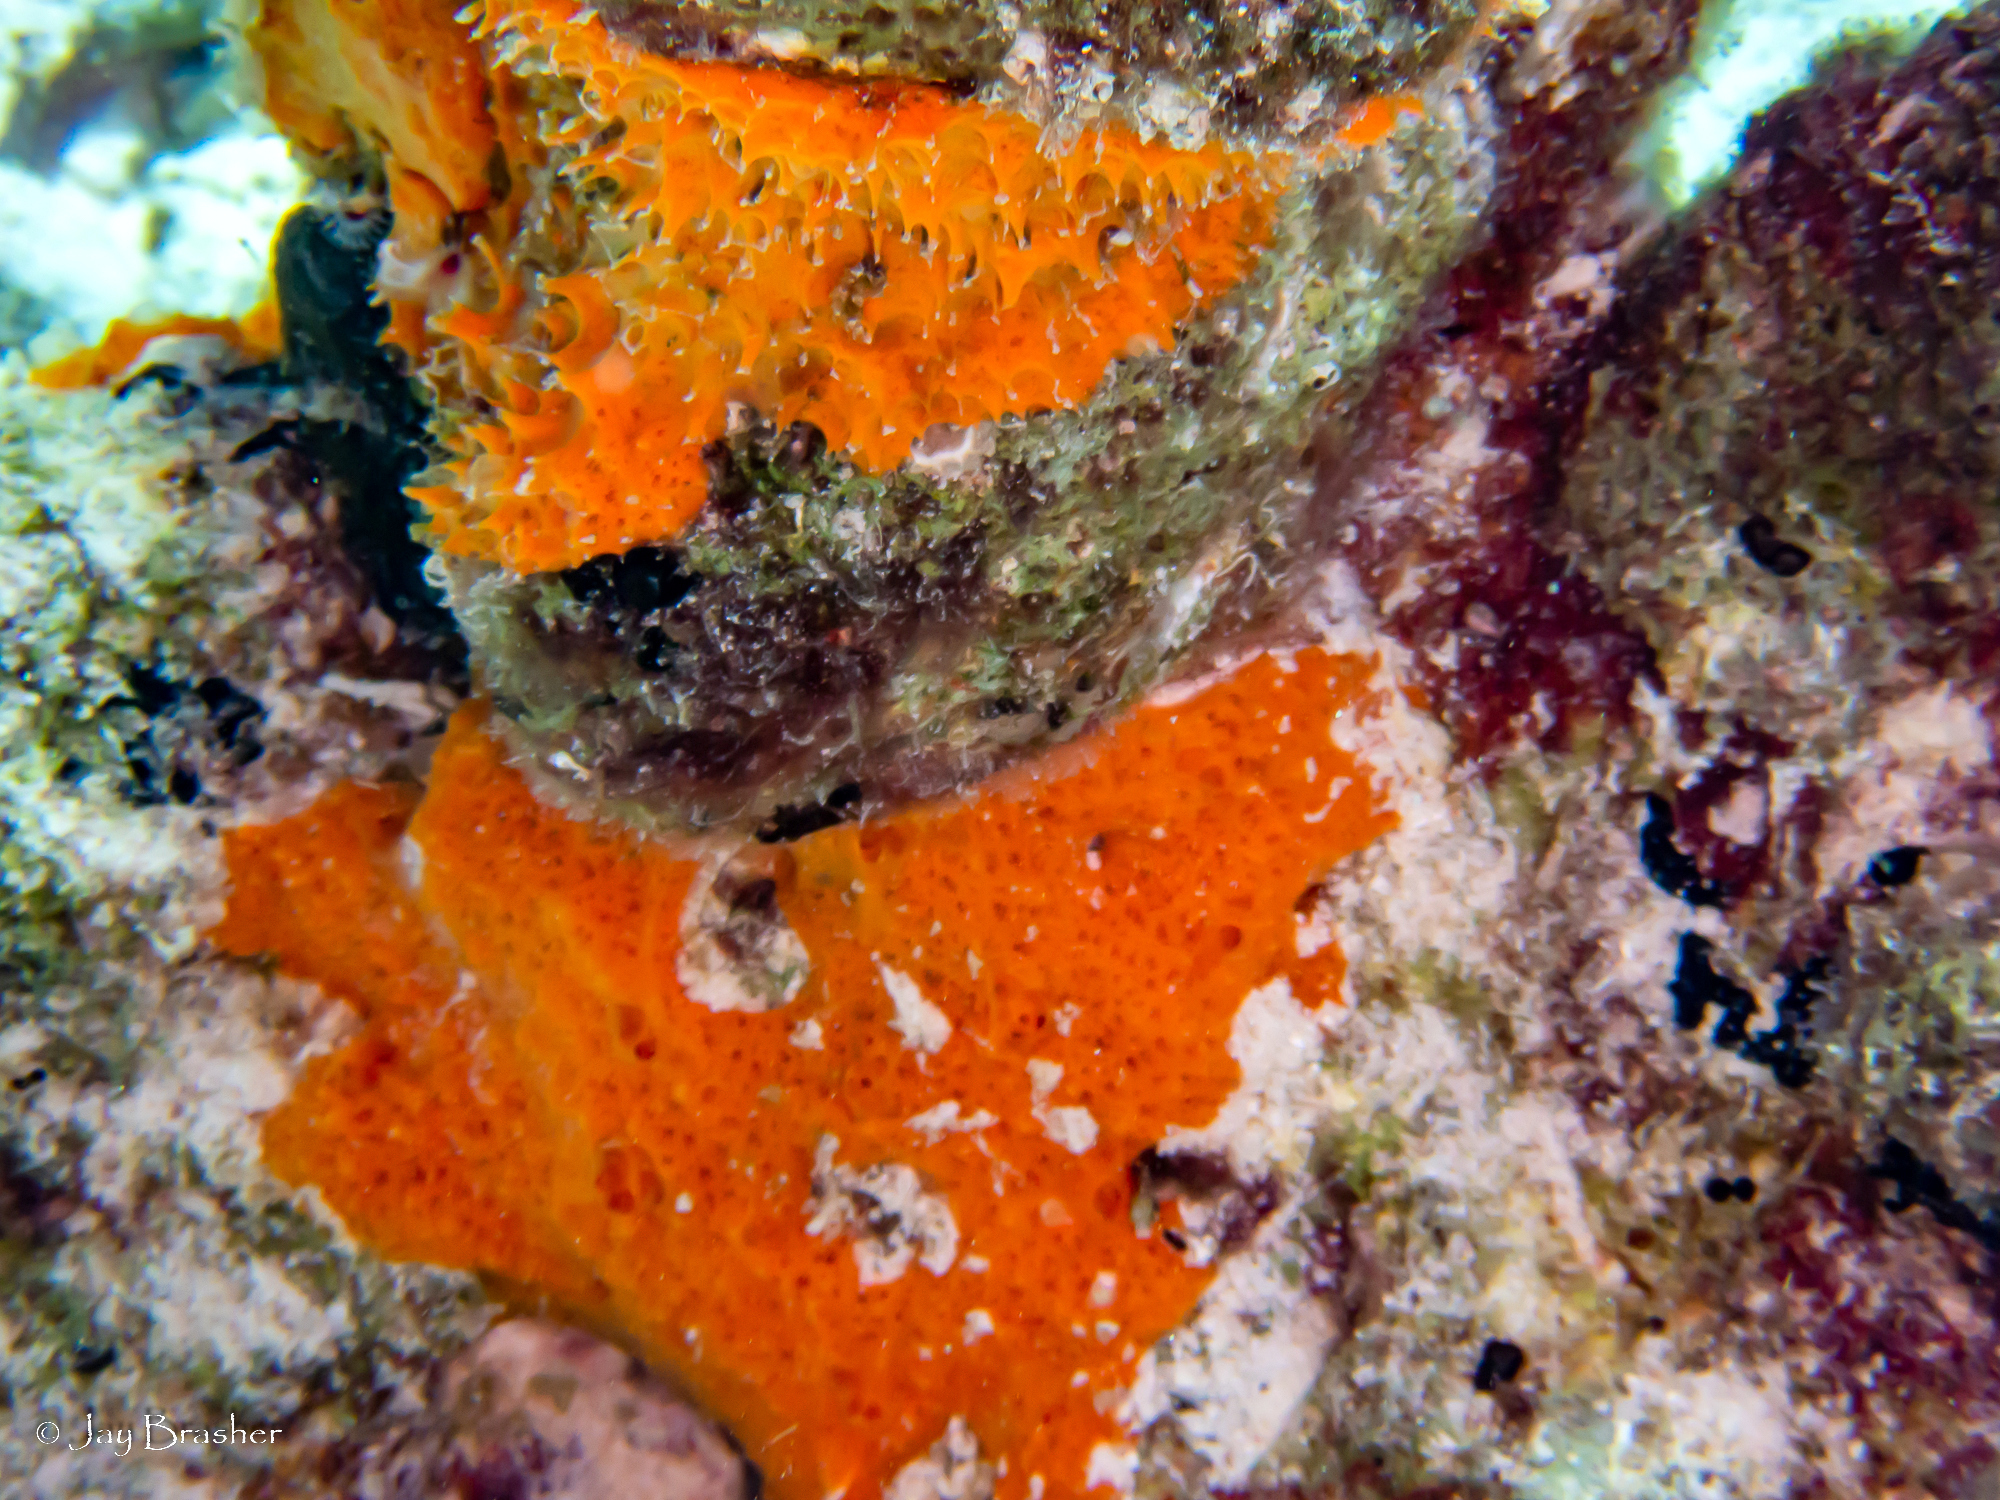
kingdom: Animalia
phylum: Porifera
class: Demospongiae
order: Scopalinida
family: Scopalinidae
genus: Scopalina
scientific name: Scopalina ruetzleri
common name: Orange lumpy encrusting sponge
